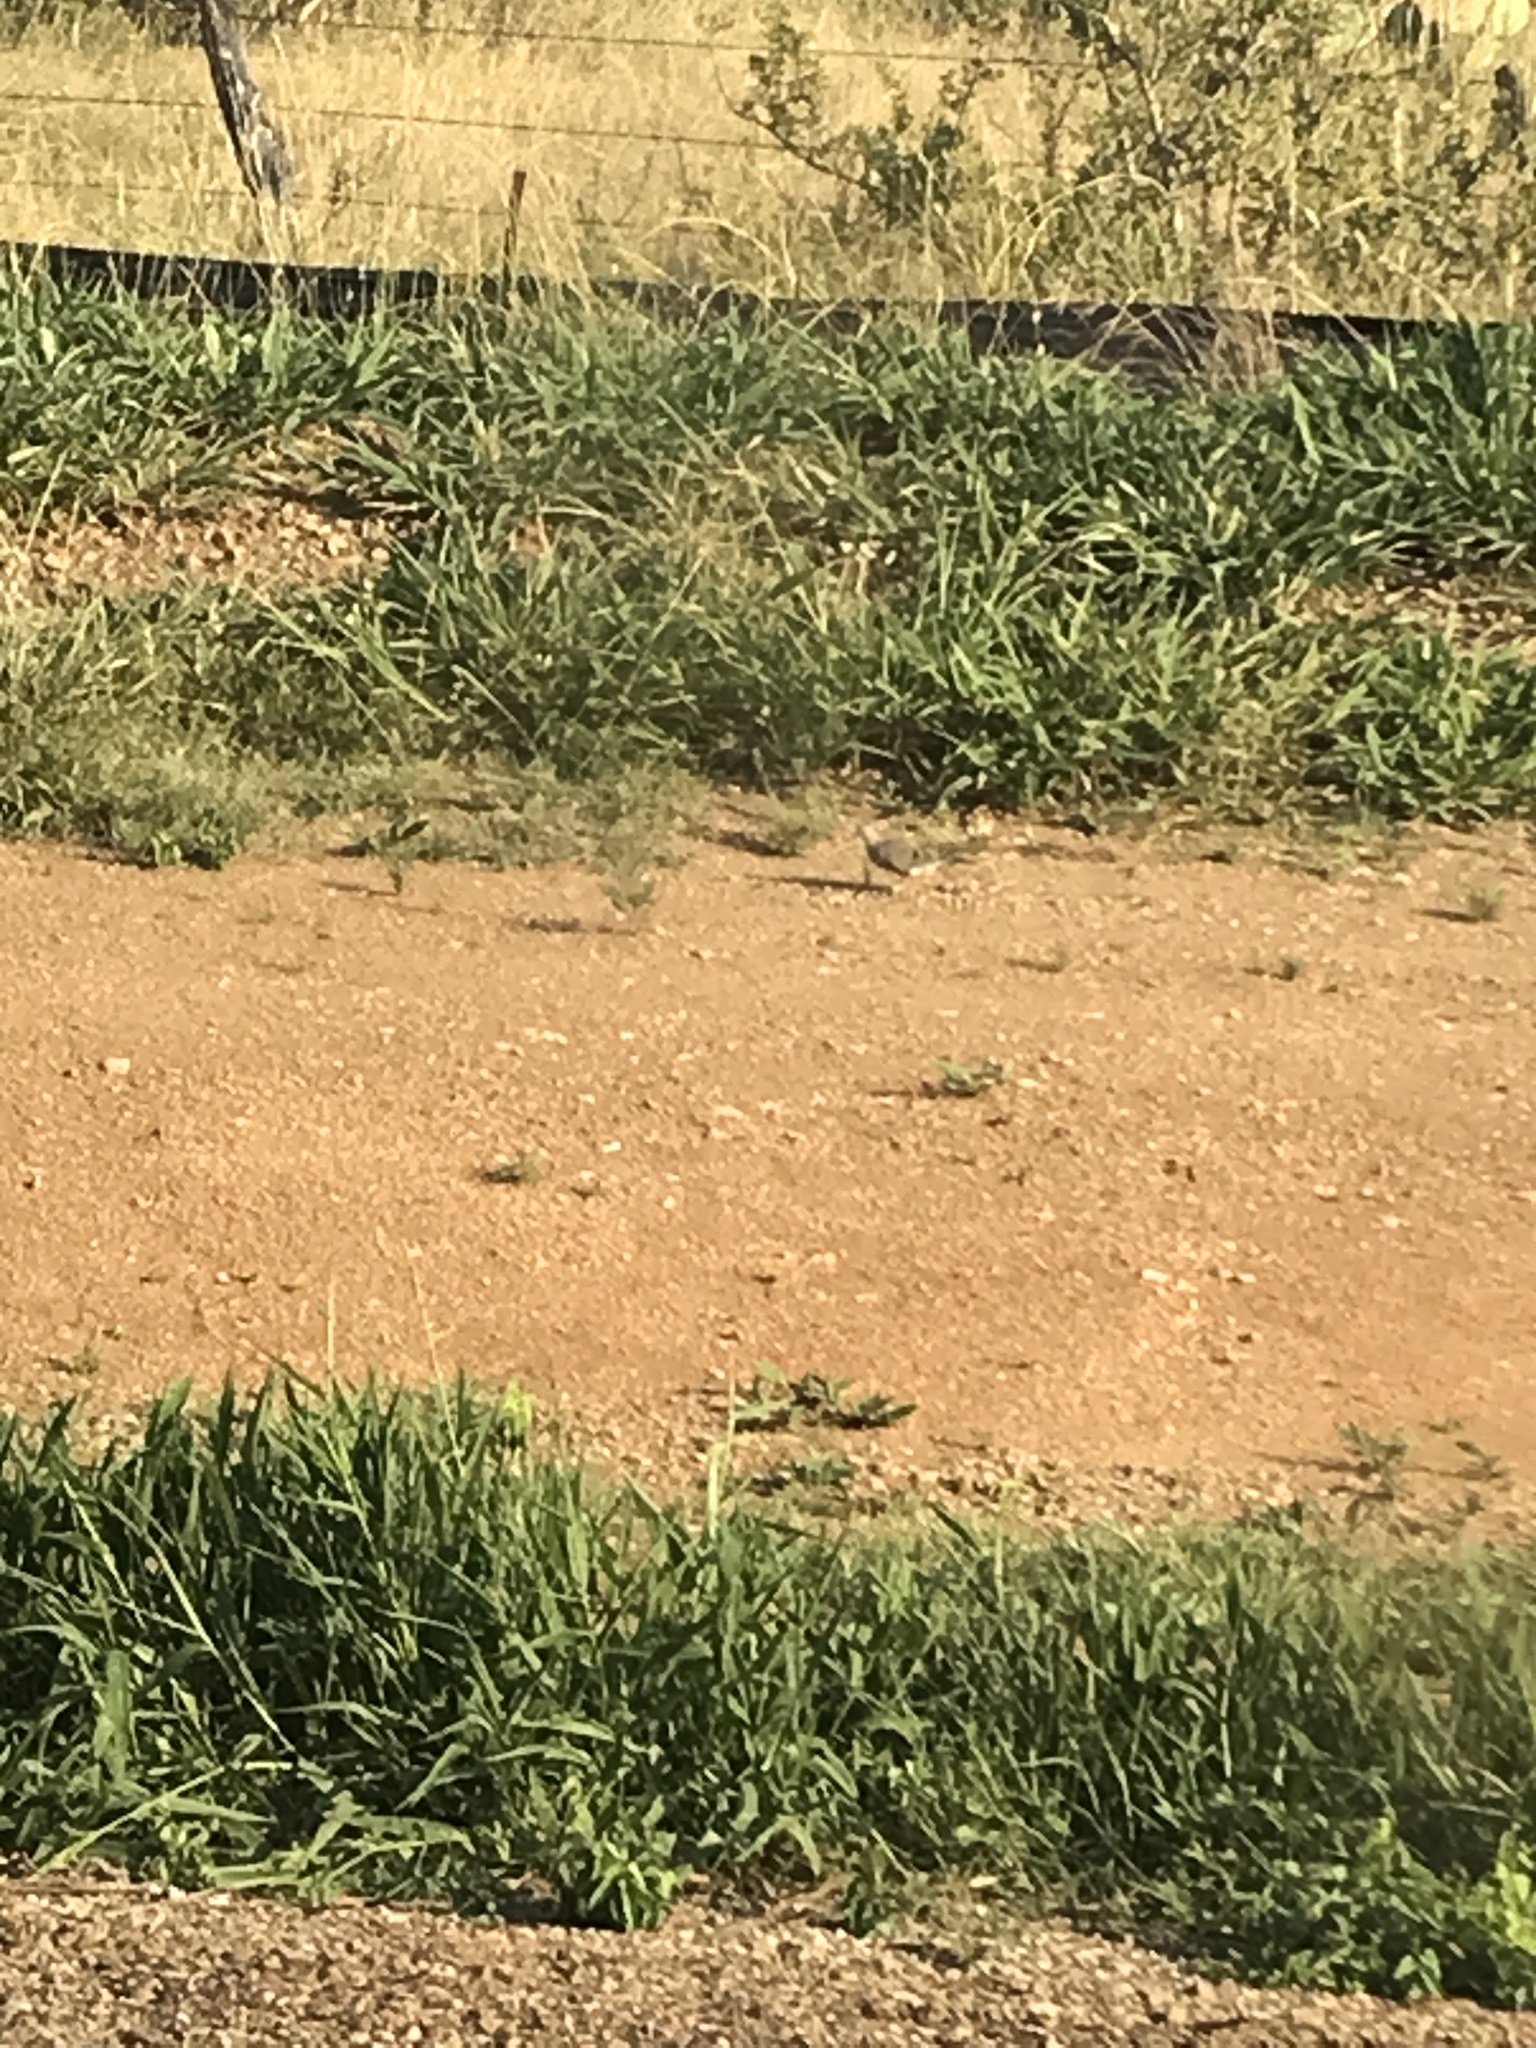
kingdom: Animalia
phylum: Chordata
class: Aves
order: Columbiformes
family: Columbidae
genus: Zenaida
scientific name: Zenaida macroura
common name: Mourning dove
